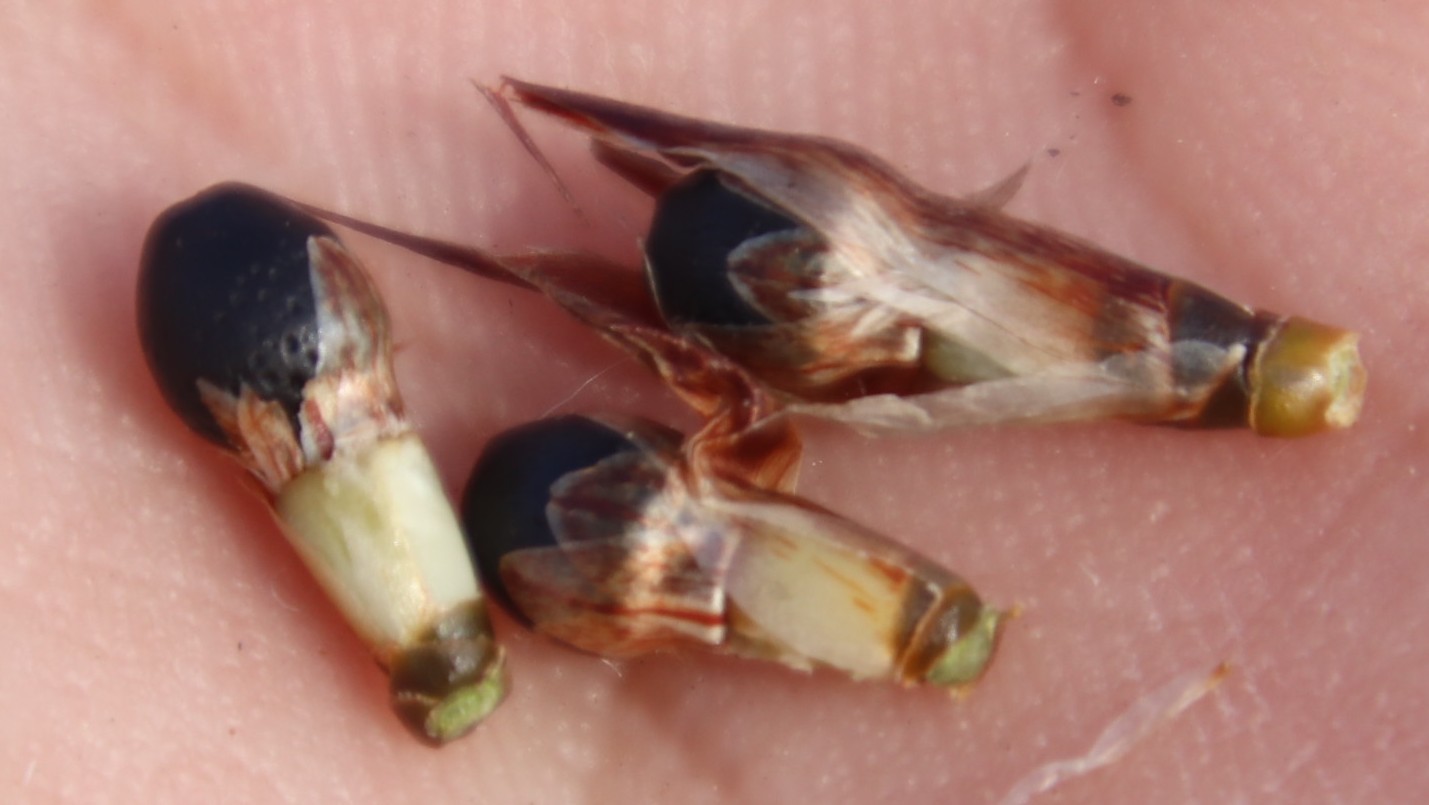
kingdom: Plantae
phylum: Tracheophyta
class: Liliopsida
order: Poales
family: Restionaceae
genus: Willdenowia
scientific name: Willdenowia sulcata
